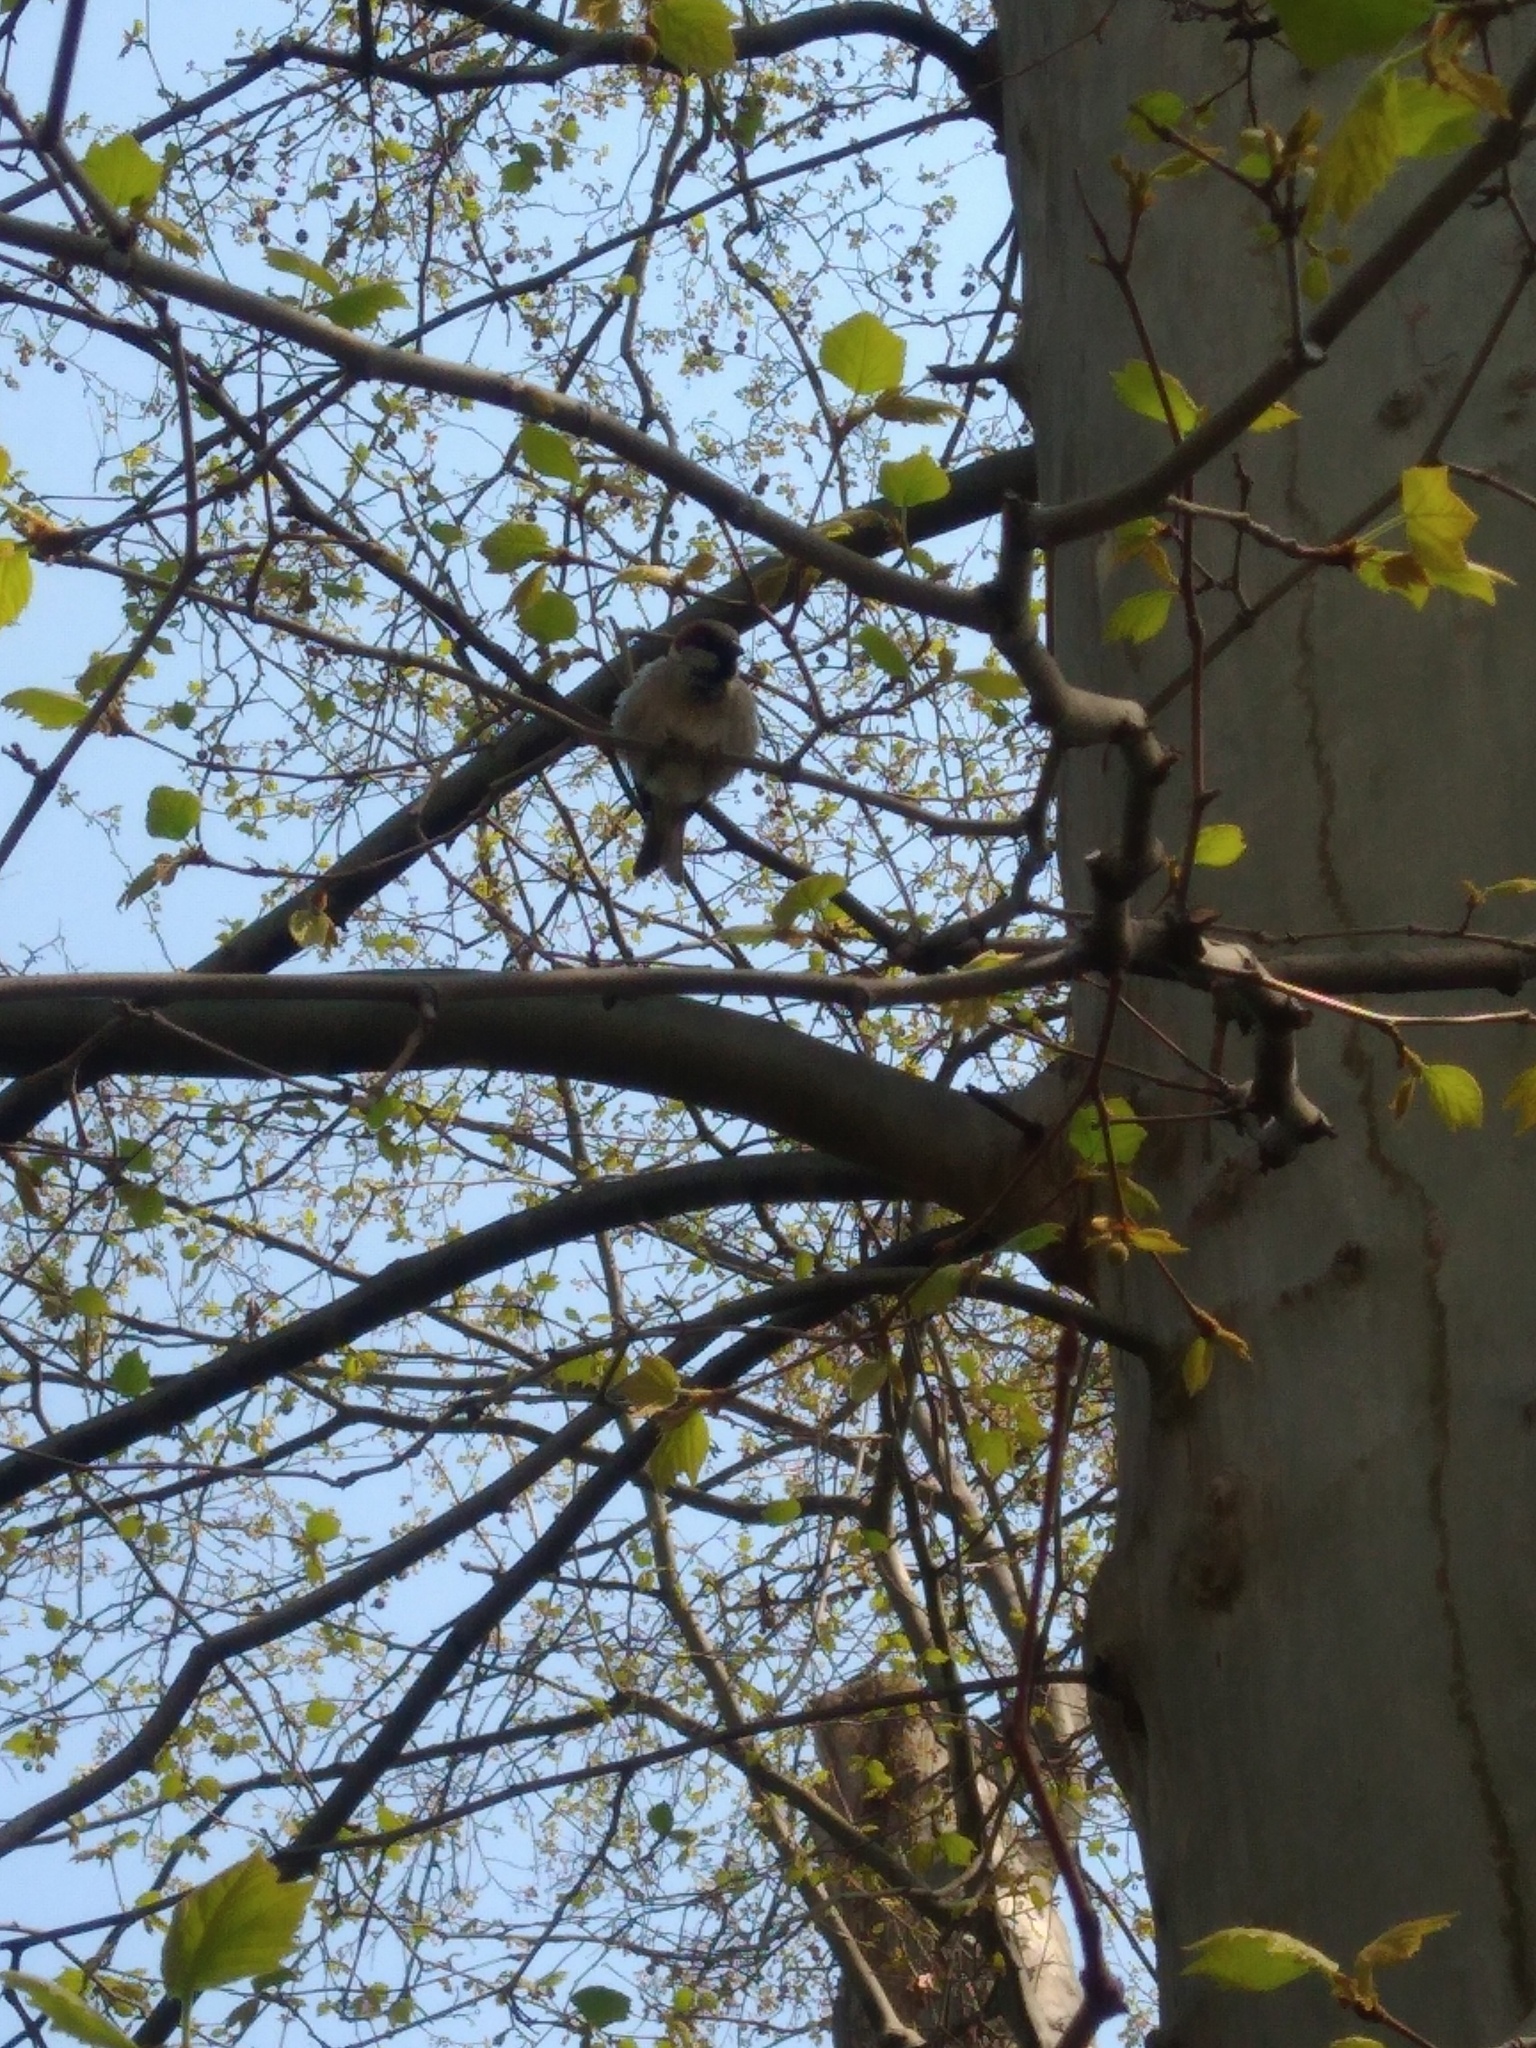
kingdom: Animalia
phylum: Chordata
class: Aves
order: Passeriformes
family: Passeridae
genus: Passer
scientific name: Passer domesticus
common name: House sparrow
